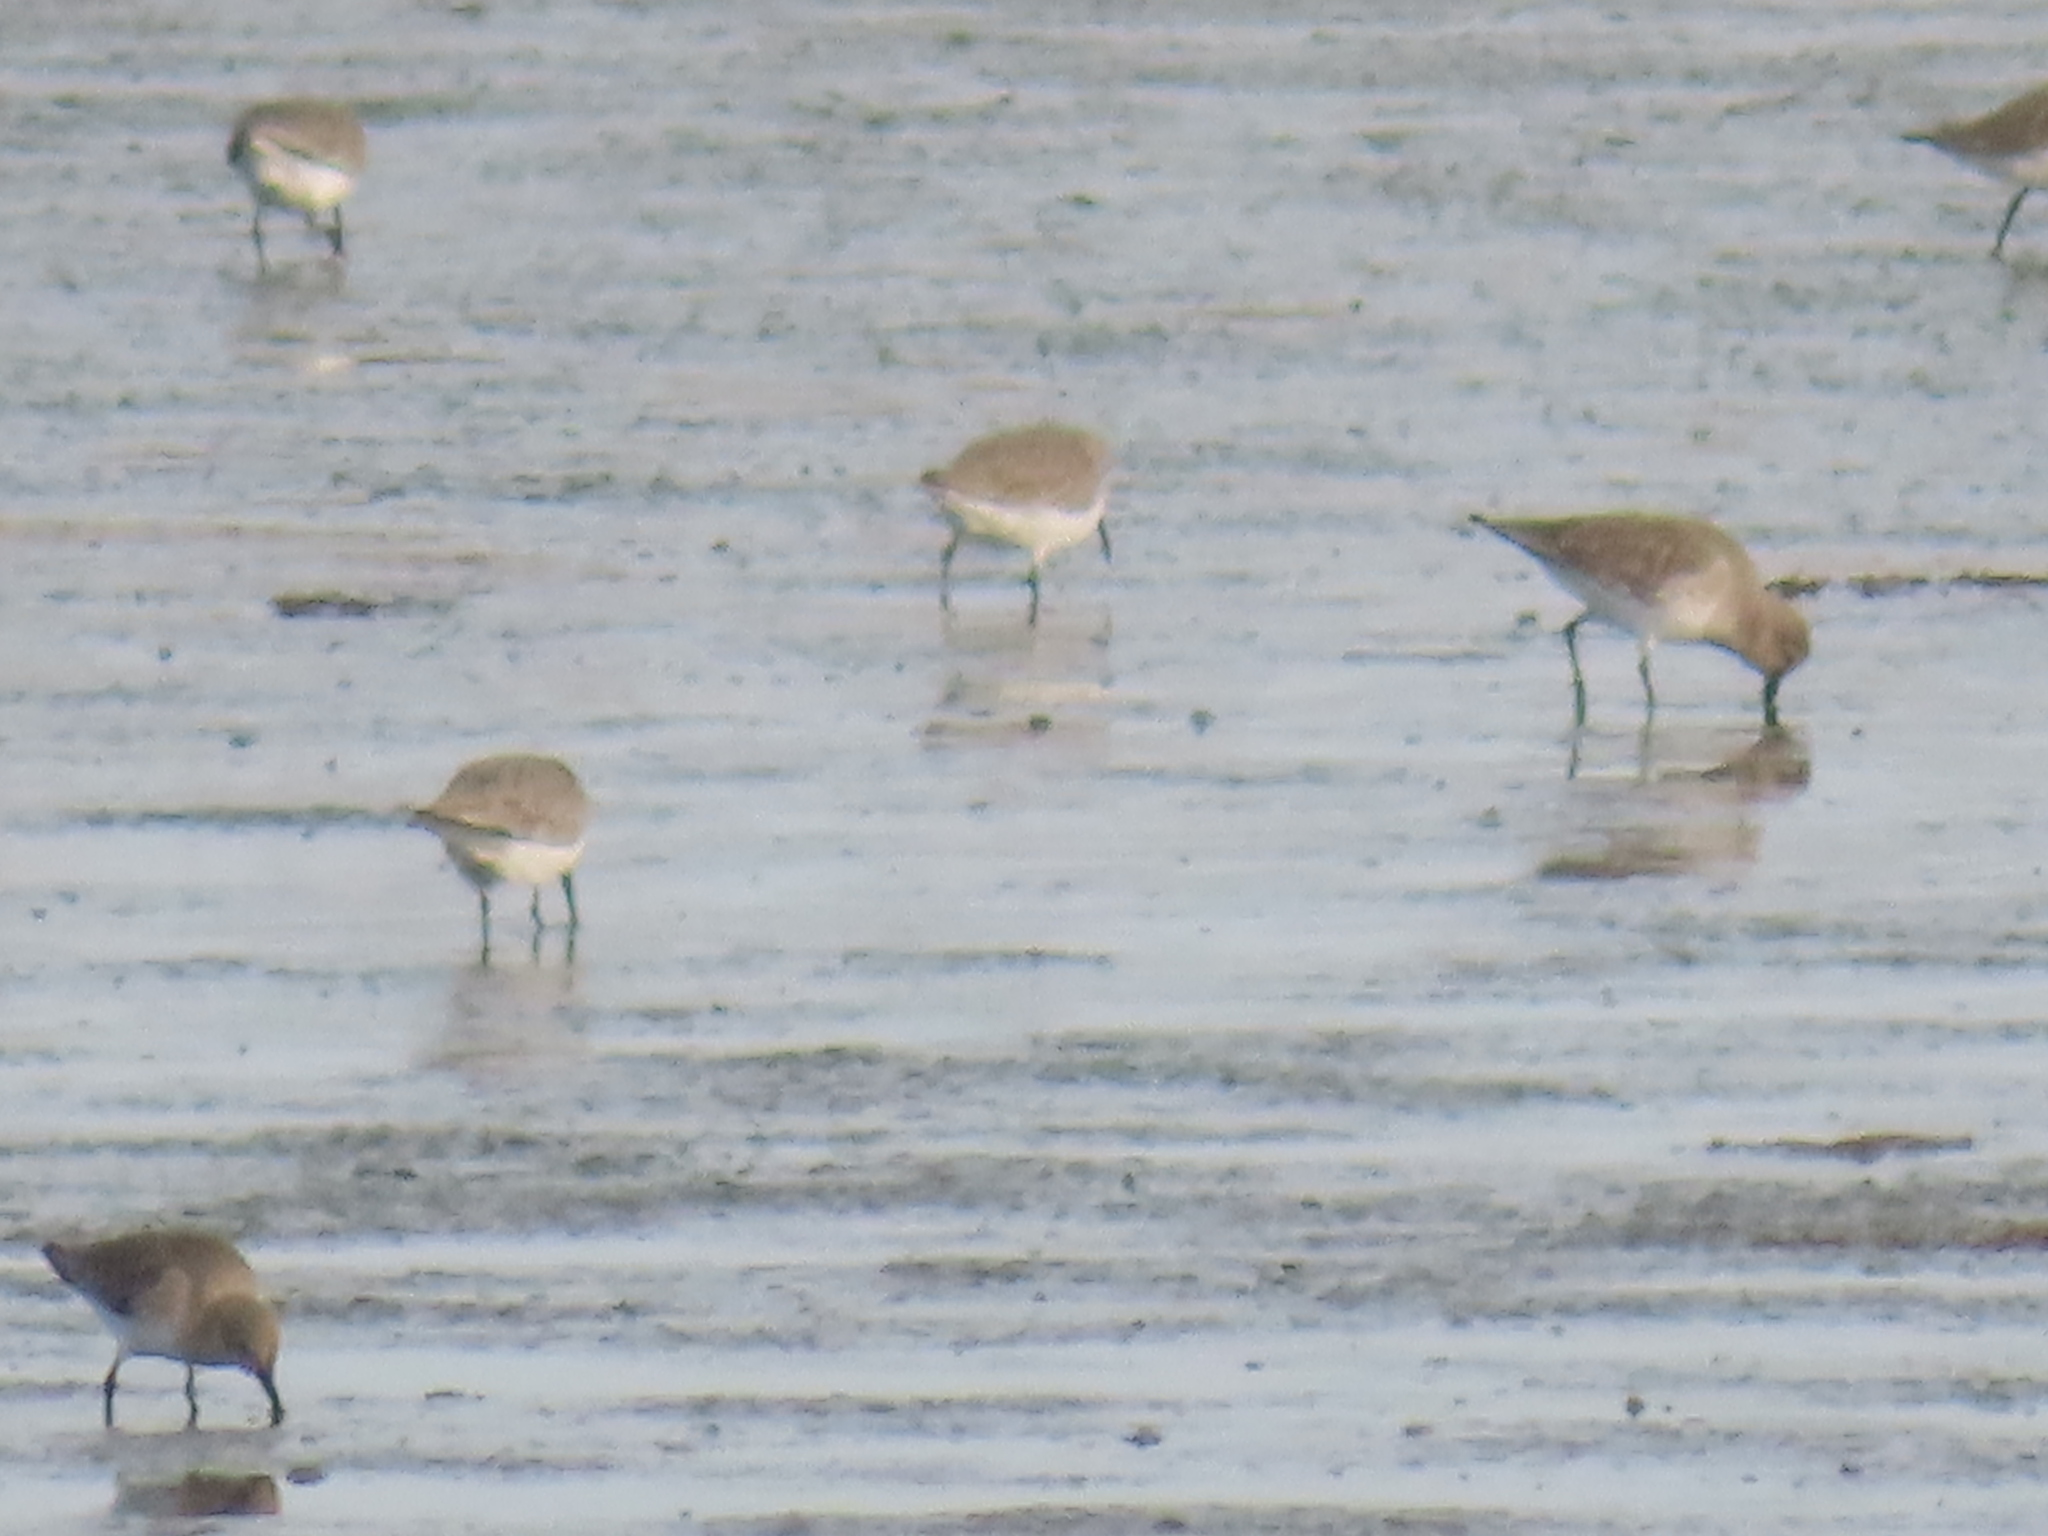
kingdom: Animalia
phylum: Chordata
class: Aves
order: Charadriiformes
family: Scolopacidae
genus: Calidris
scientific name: Calidris alpina
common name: Dunlin
